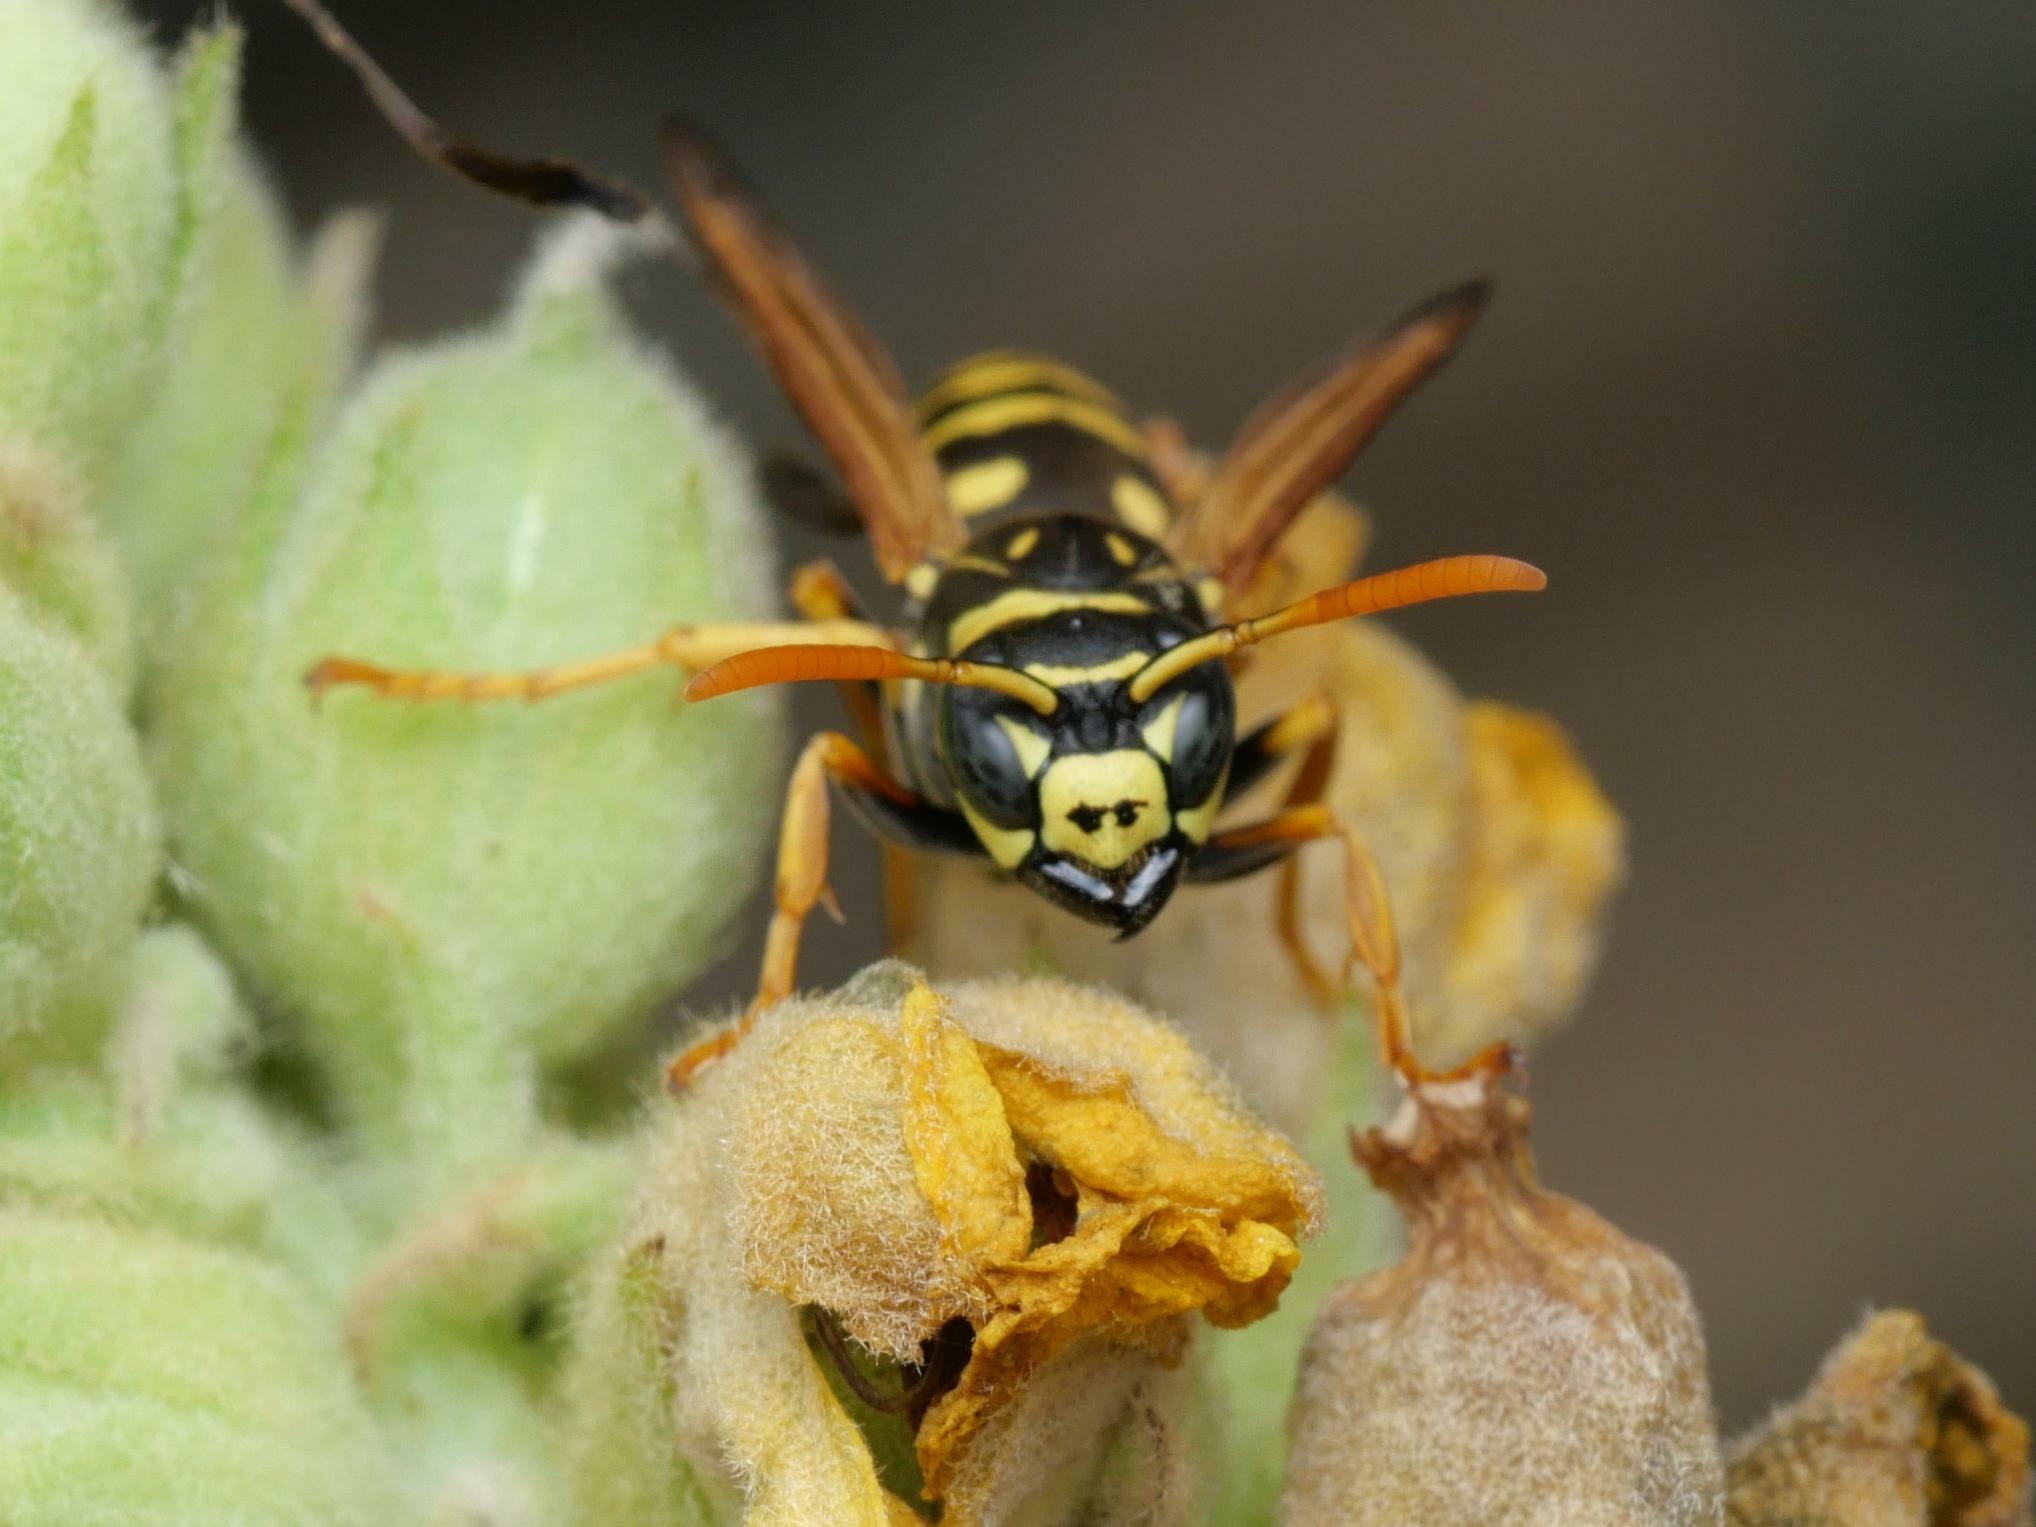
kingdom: Animalia
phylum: Arthropoda
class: Insecta
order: Hymenoptera
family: Eumenidae
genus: Polistes
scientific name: Polistes dominula
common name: Paper wasp
